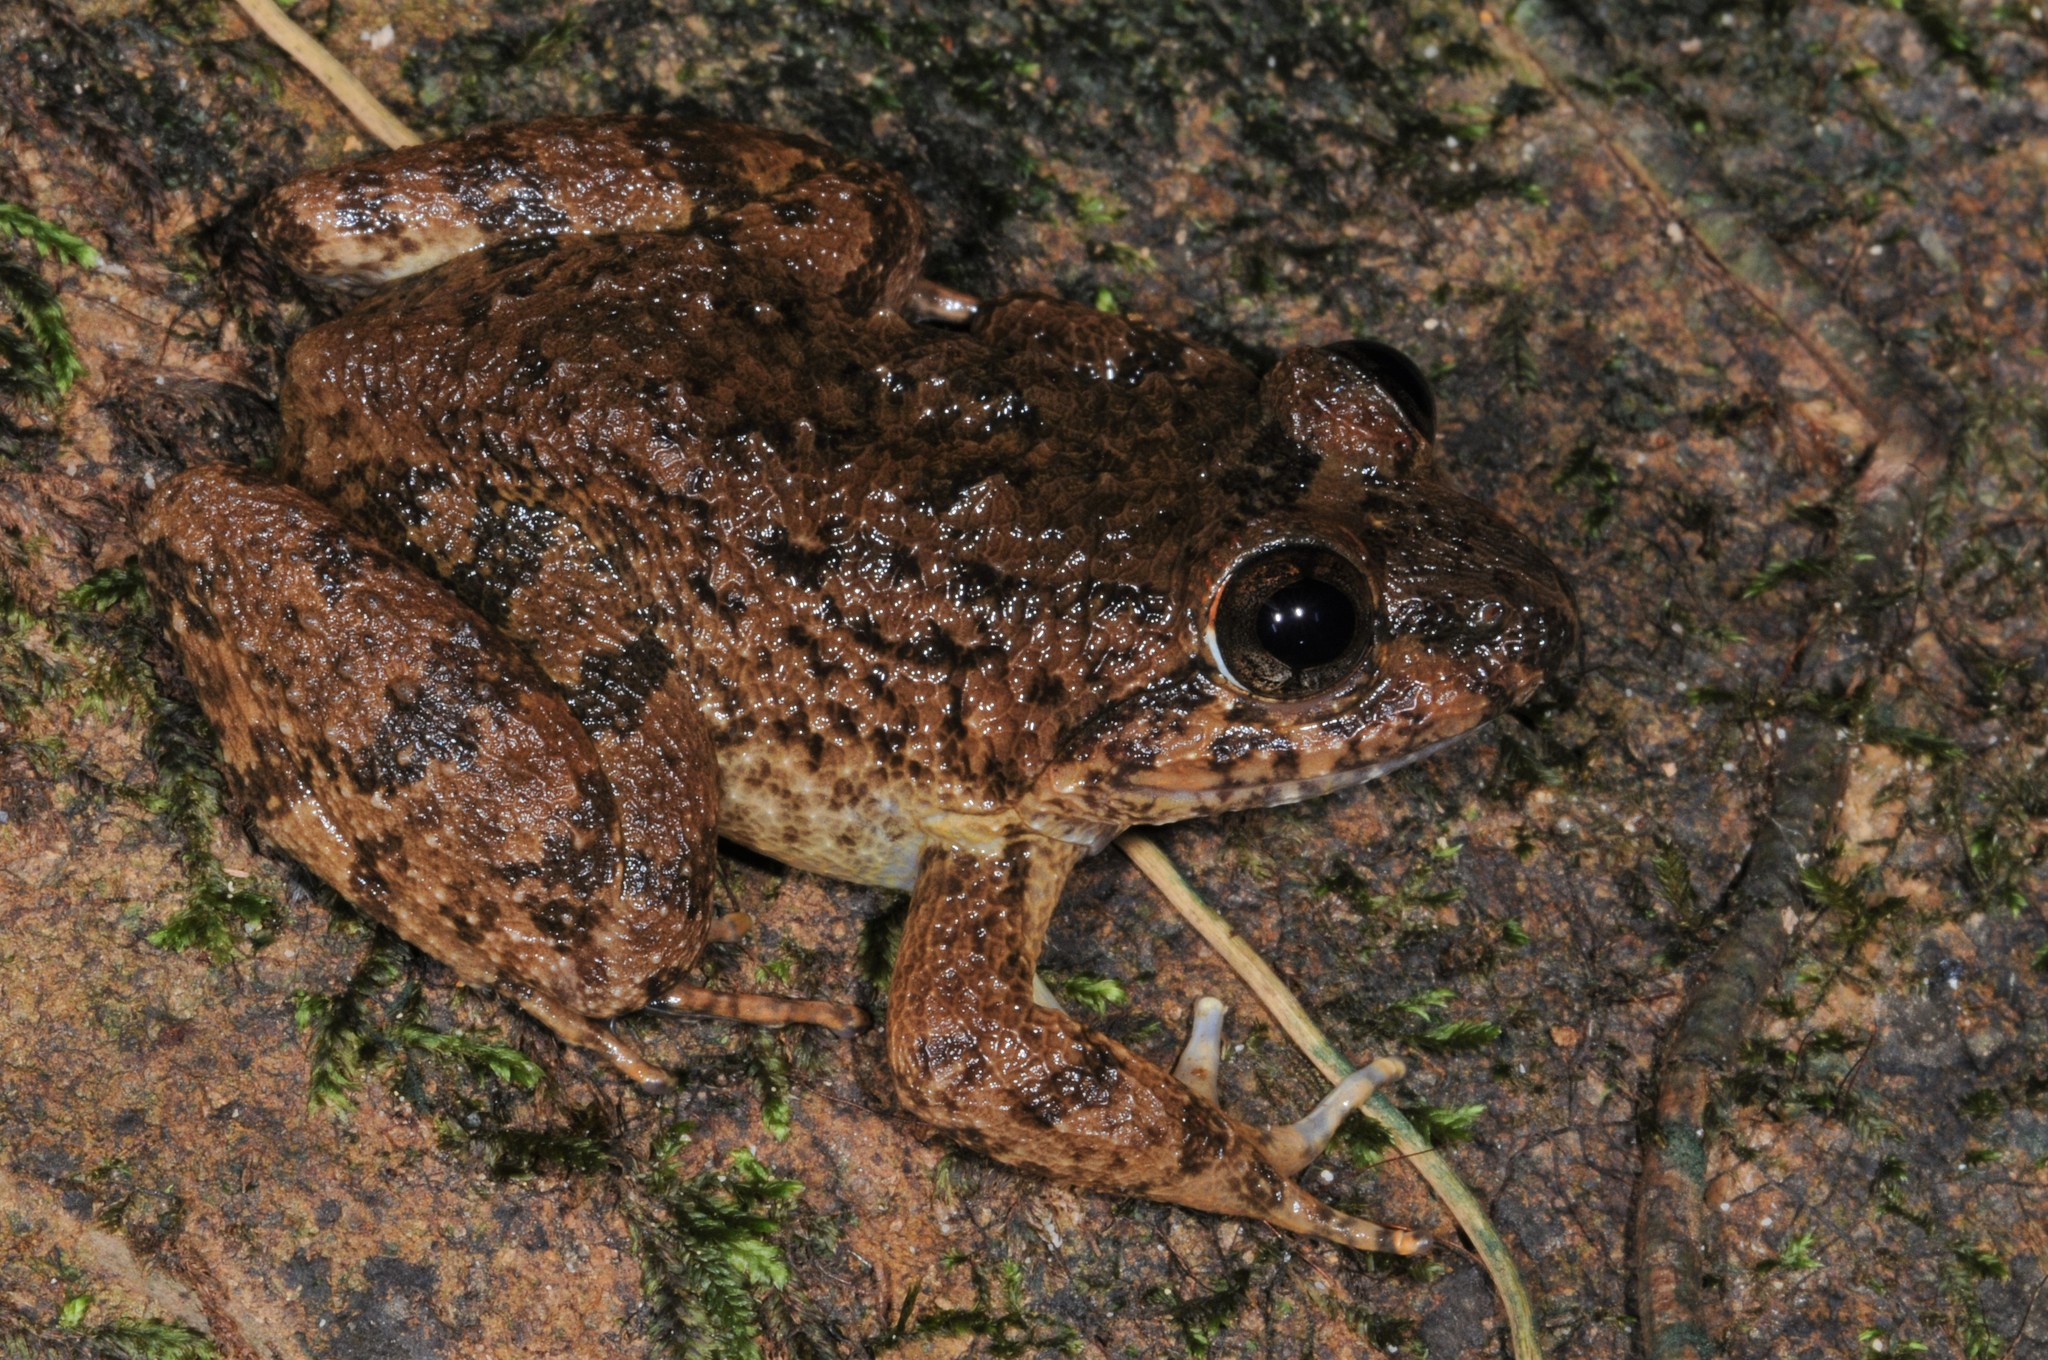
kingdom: Animalia
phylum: Chordata
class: Amphibia
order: Anura
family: Dicroglossidae
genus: Limnonectes
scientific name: Limnonectes conspicillatus
